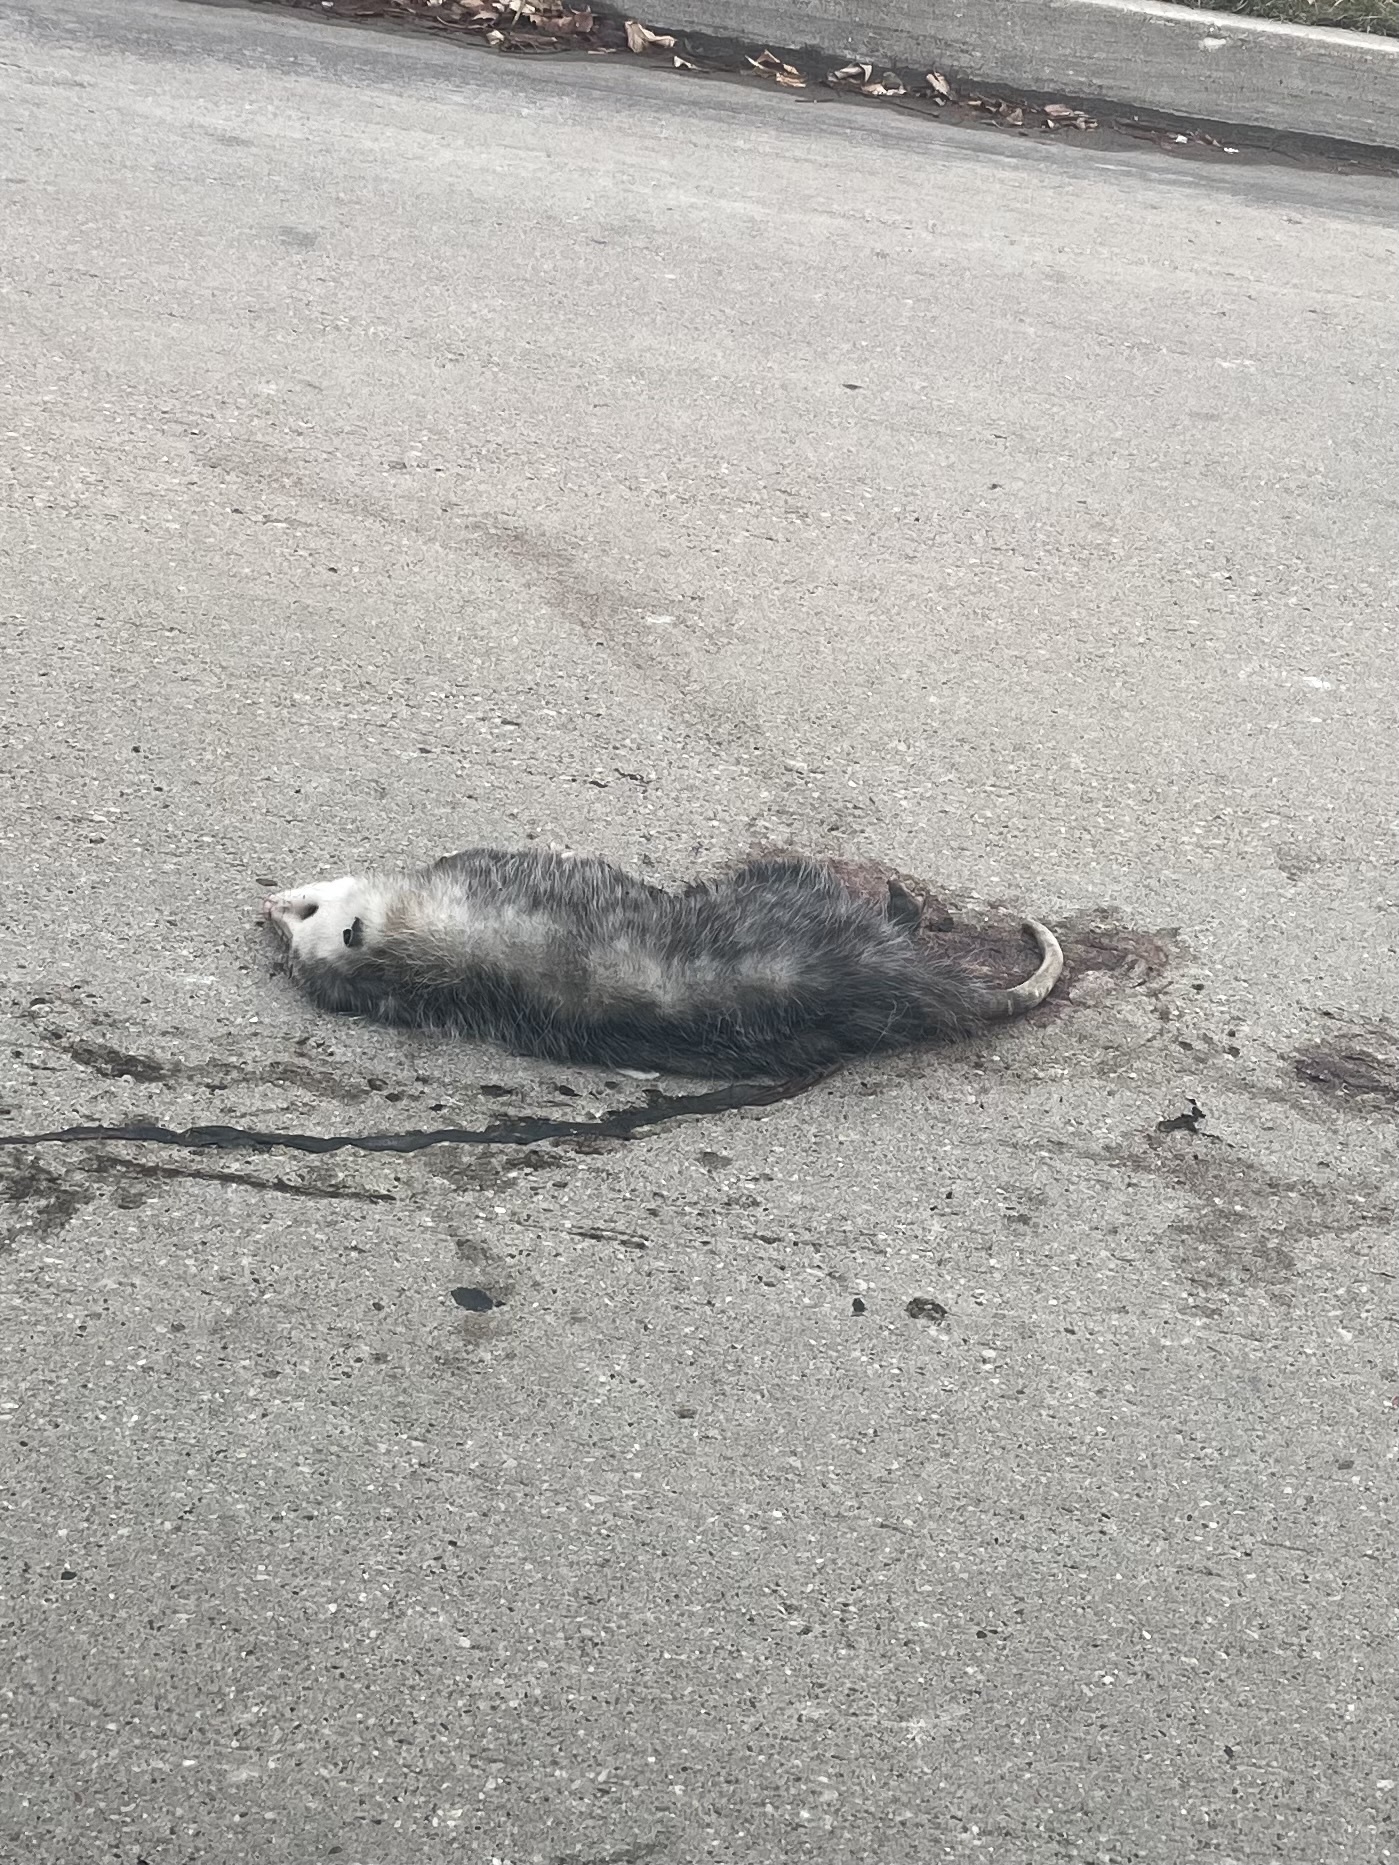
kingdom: Animalia
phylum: Chordata
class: Mammalia
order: Didelphimorphia
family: Didelphidae
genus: Didelphis
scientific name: Didelphis virginiana
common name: Virginia opossum
